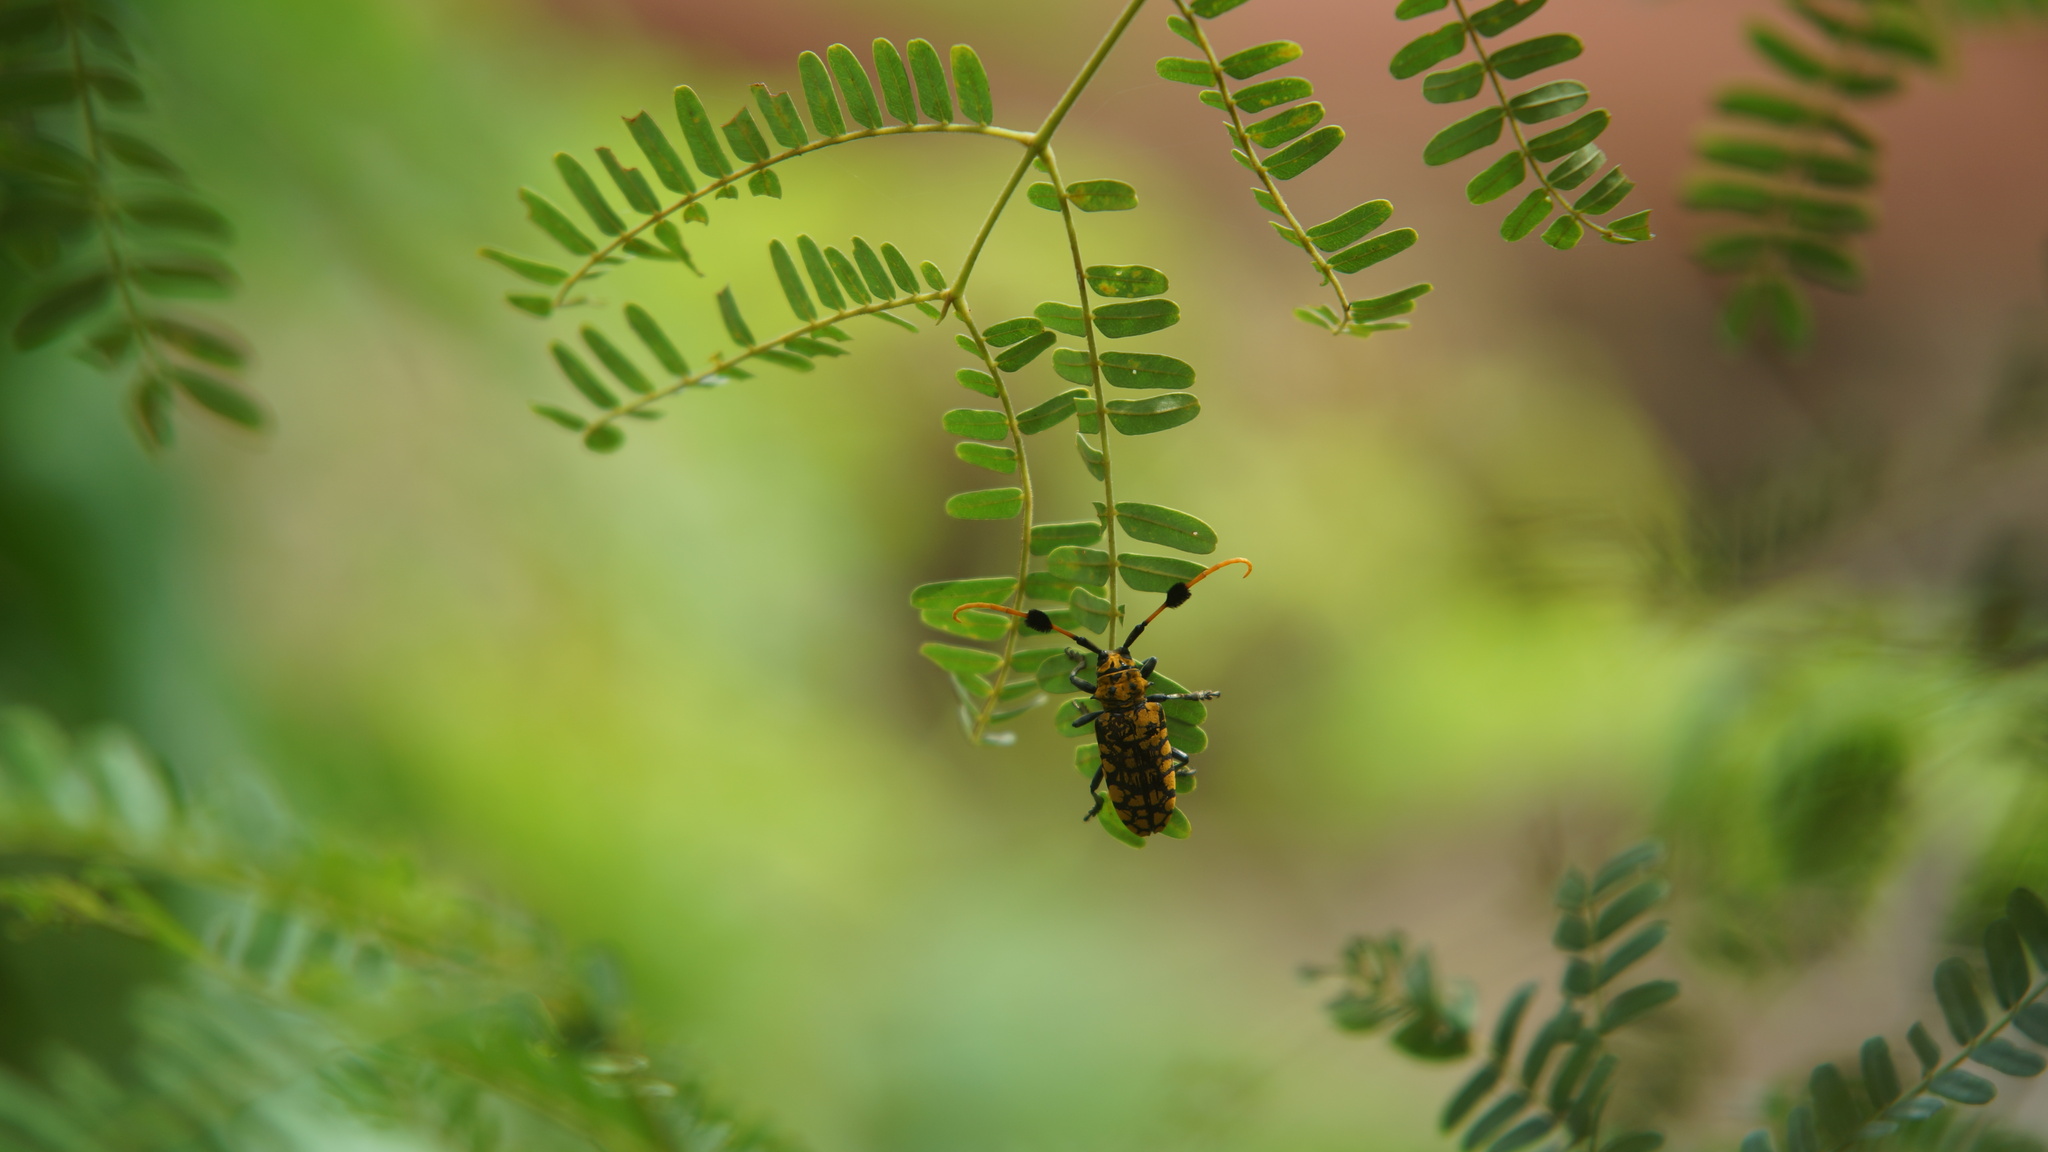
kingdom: Animalia
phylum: Arthropoda
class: Insecta
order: Coleoptera
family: Cerambycidae
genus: Aristobia
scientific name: Aristobia approximator
